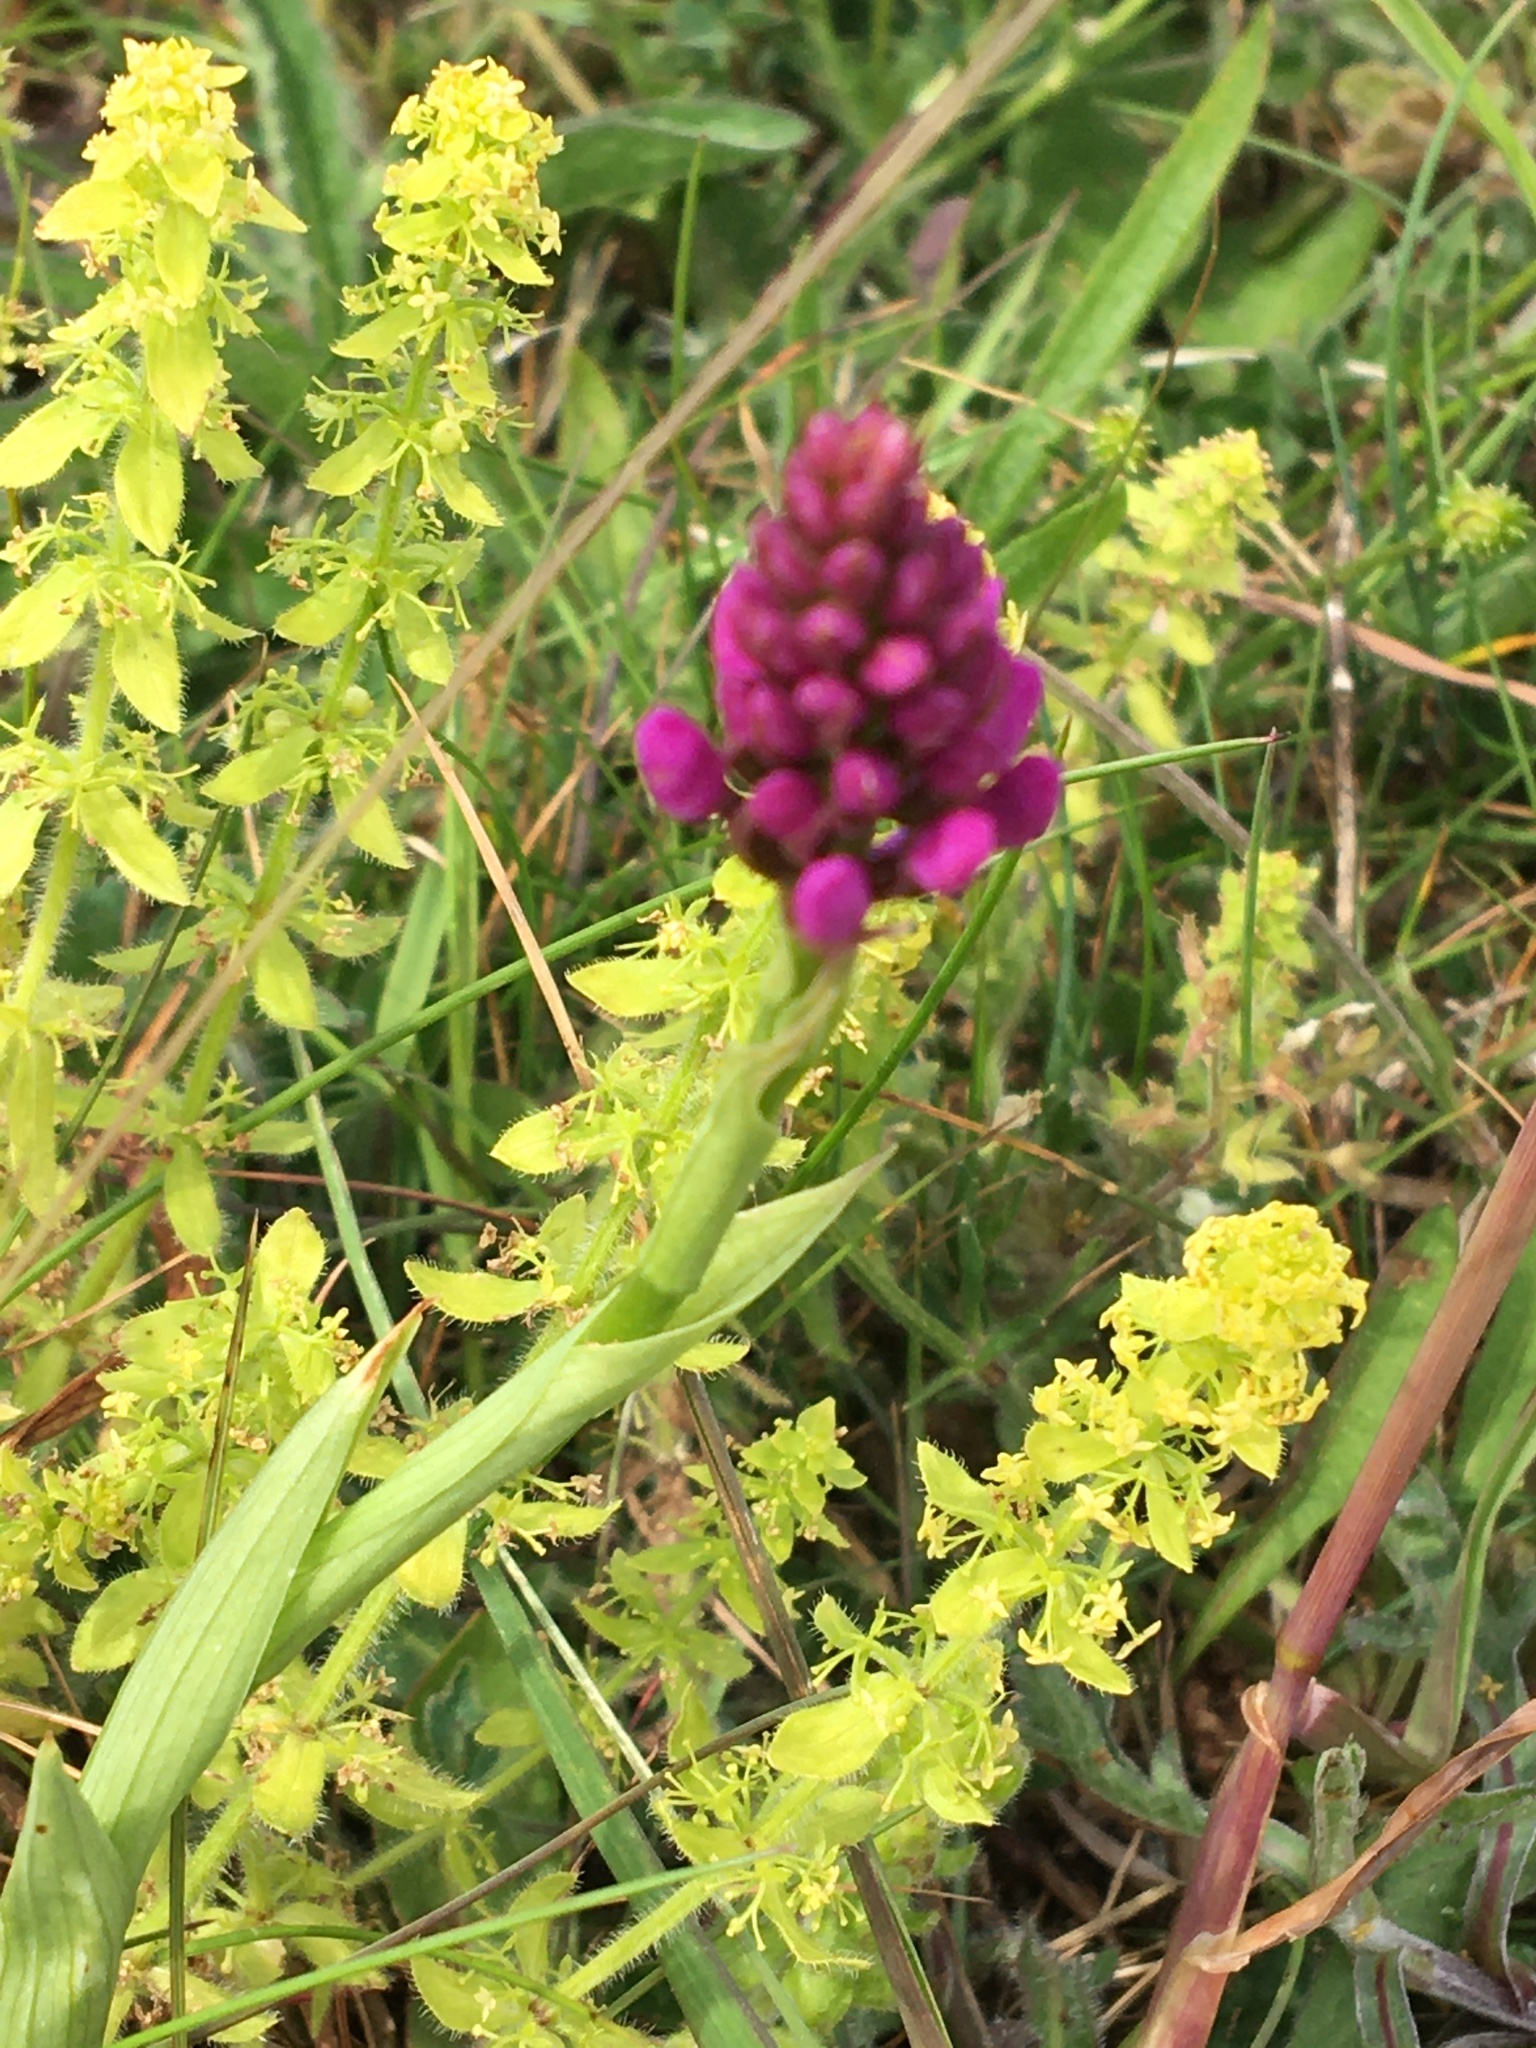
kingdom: Plantae
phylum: Tracheophyta
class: Liliopsida
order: Asparagales
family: Orchidaceae
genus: Anacamptis
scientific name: Anacamptis pyramidalis
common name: Pyramidal orchid
